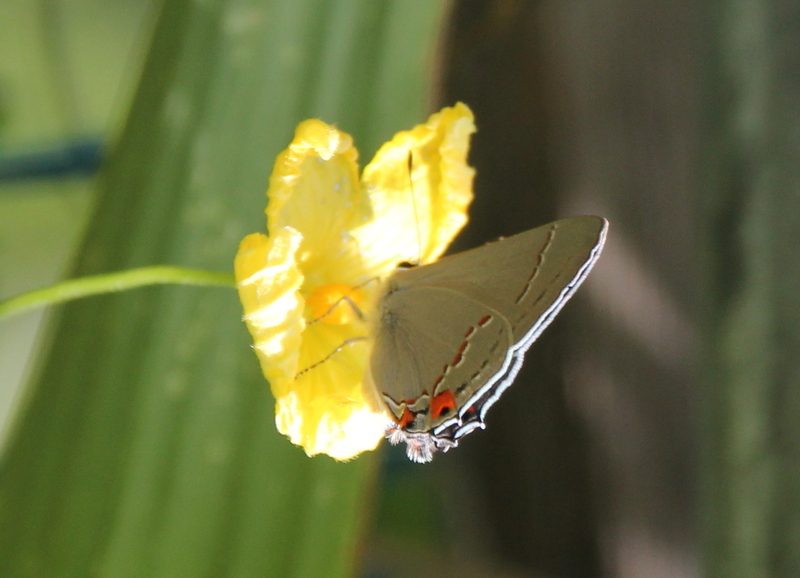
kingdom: Animalia
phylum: Arthropoda
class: Insecta
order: Lepidoptera
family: Lycaenidae
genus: Strymon
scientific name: Strymon melinus
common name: Gray hairstreak
